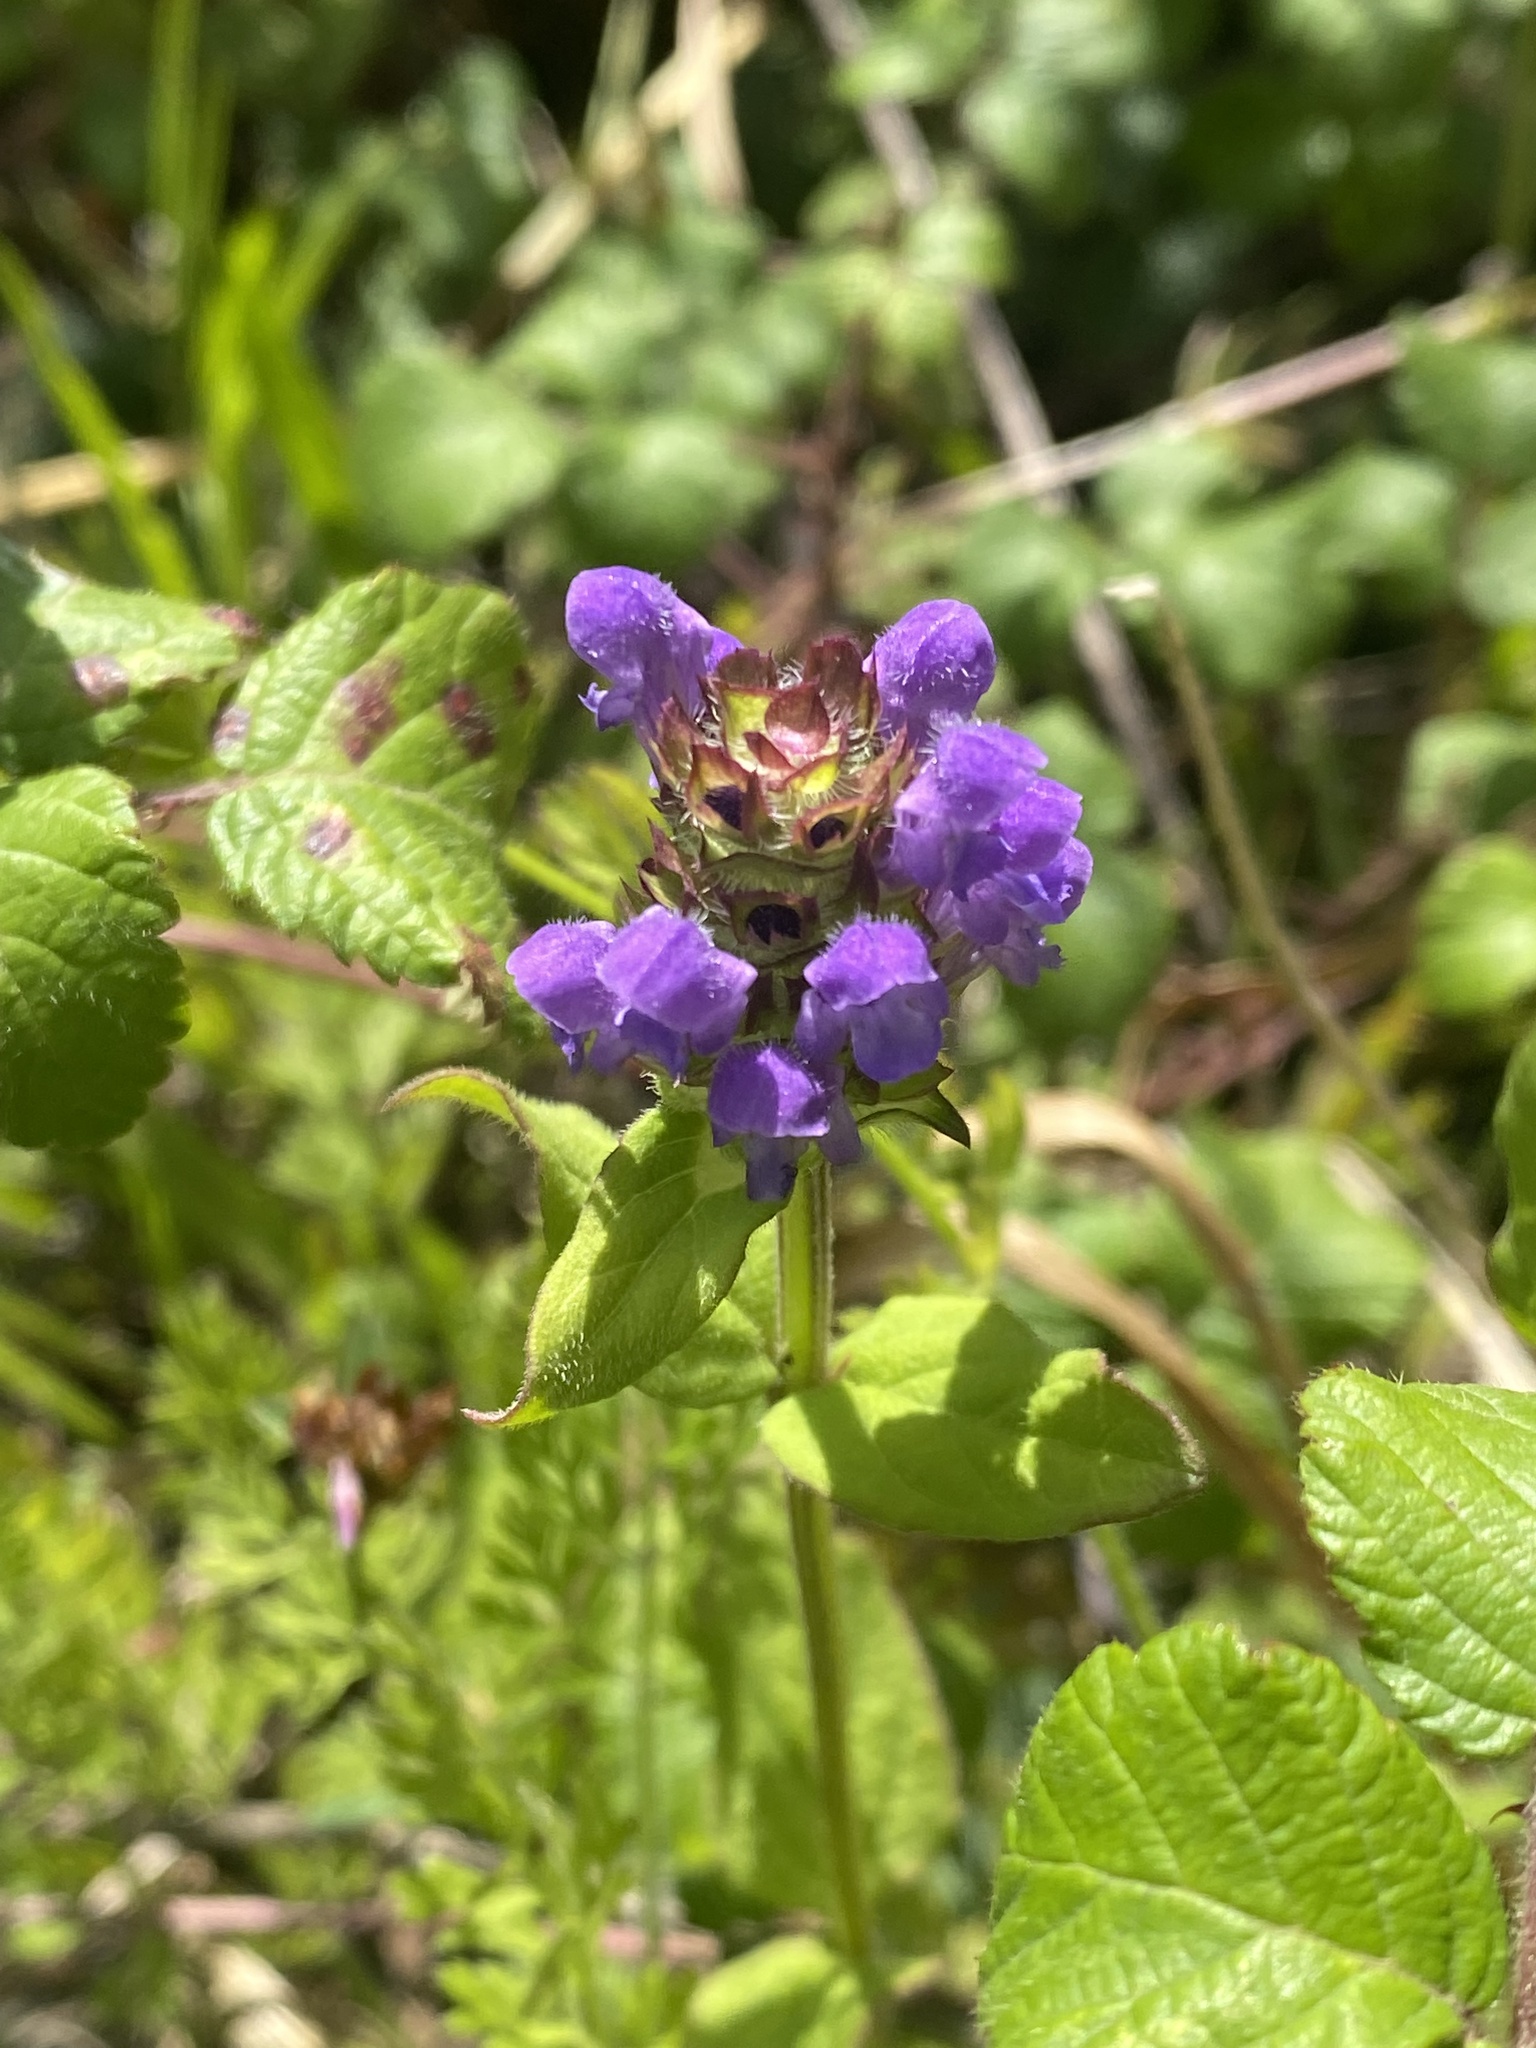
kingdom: Plantae
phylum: Tracheophyta
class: Magnoliopsida
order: Lamiales
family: Lamiaceae
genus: Prunella
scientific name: Prunella vulgaris
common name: Heal-all
